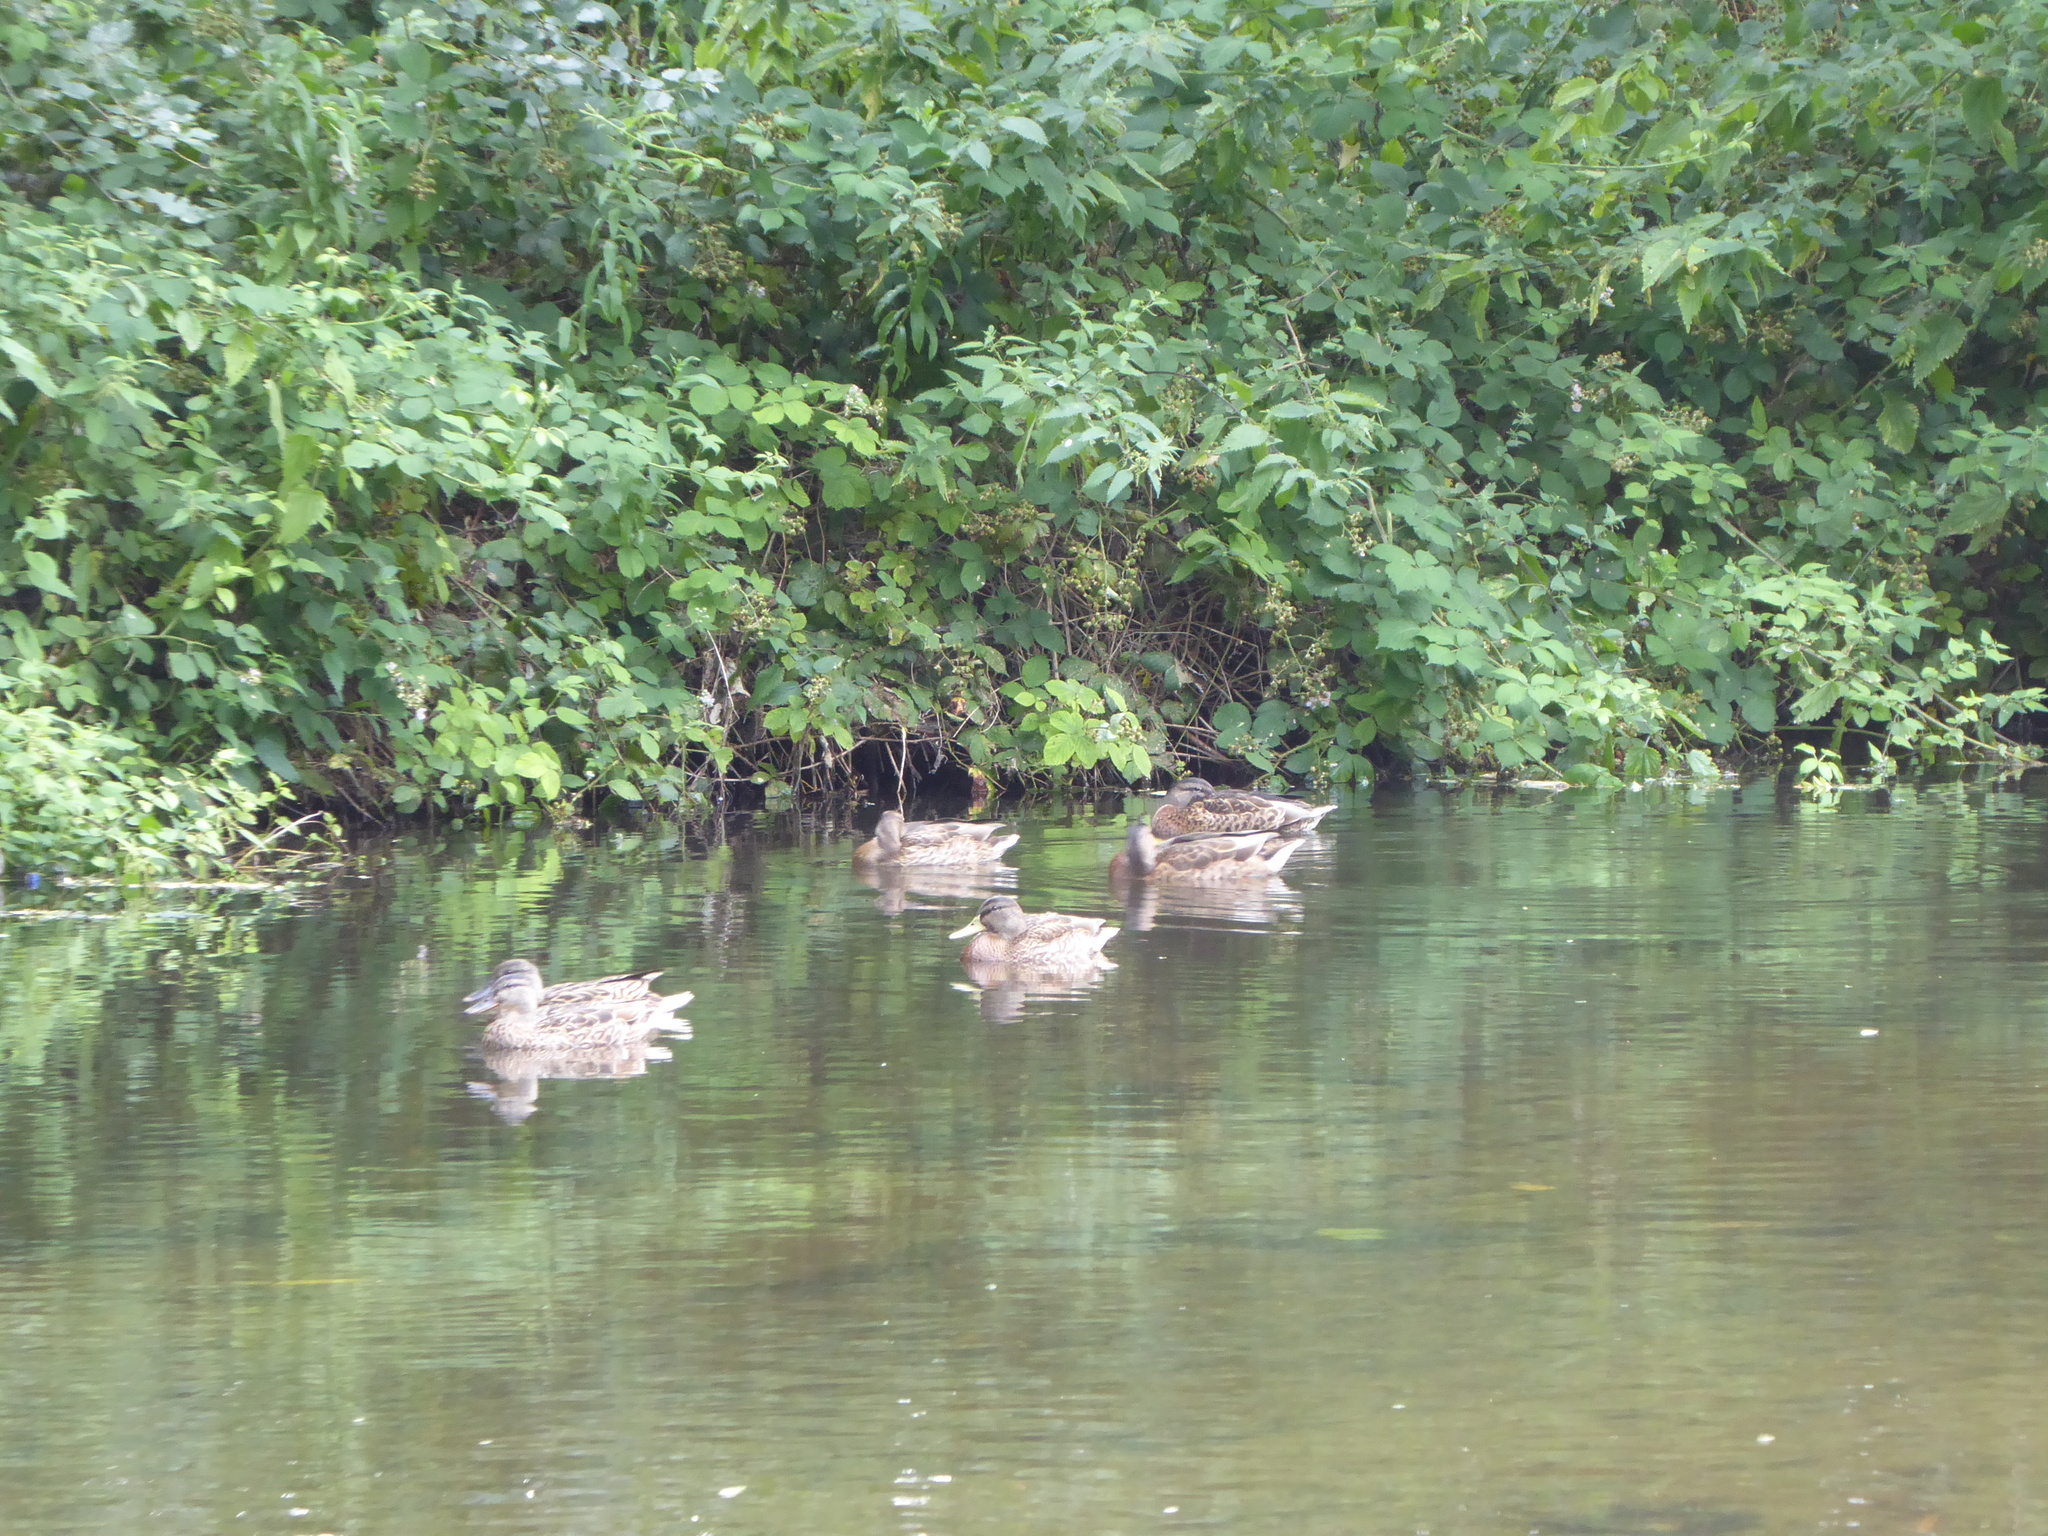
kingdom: Animalia
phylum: Chordata
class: Aves
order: Anseriformes
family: Anatidae
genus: Anas
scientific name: Anas platyrhynchos
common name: Mallard
